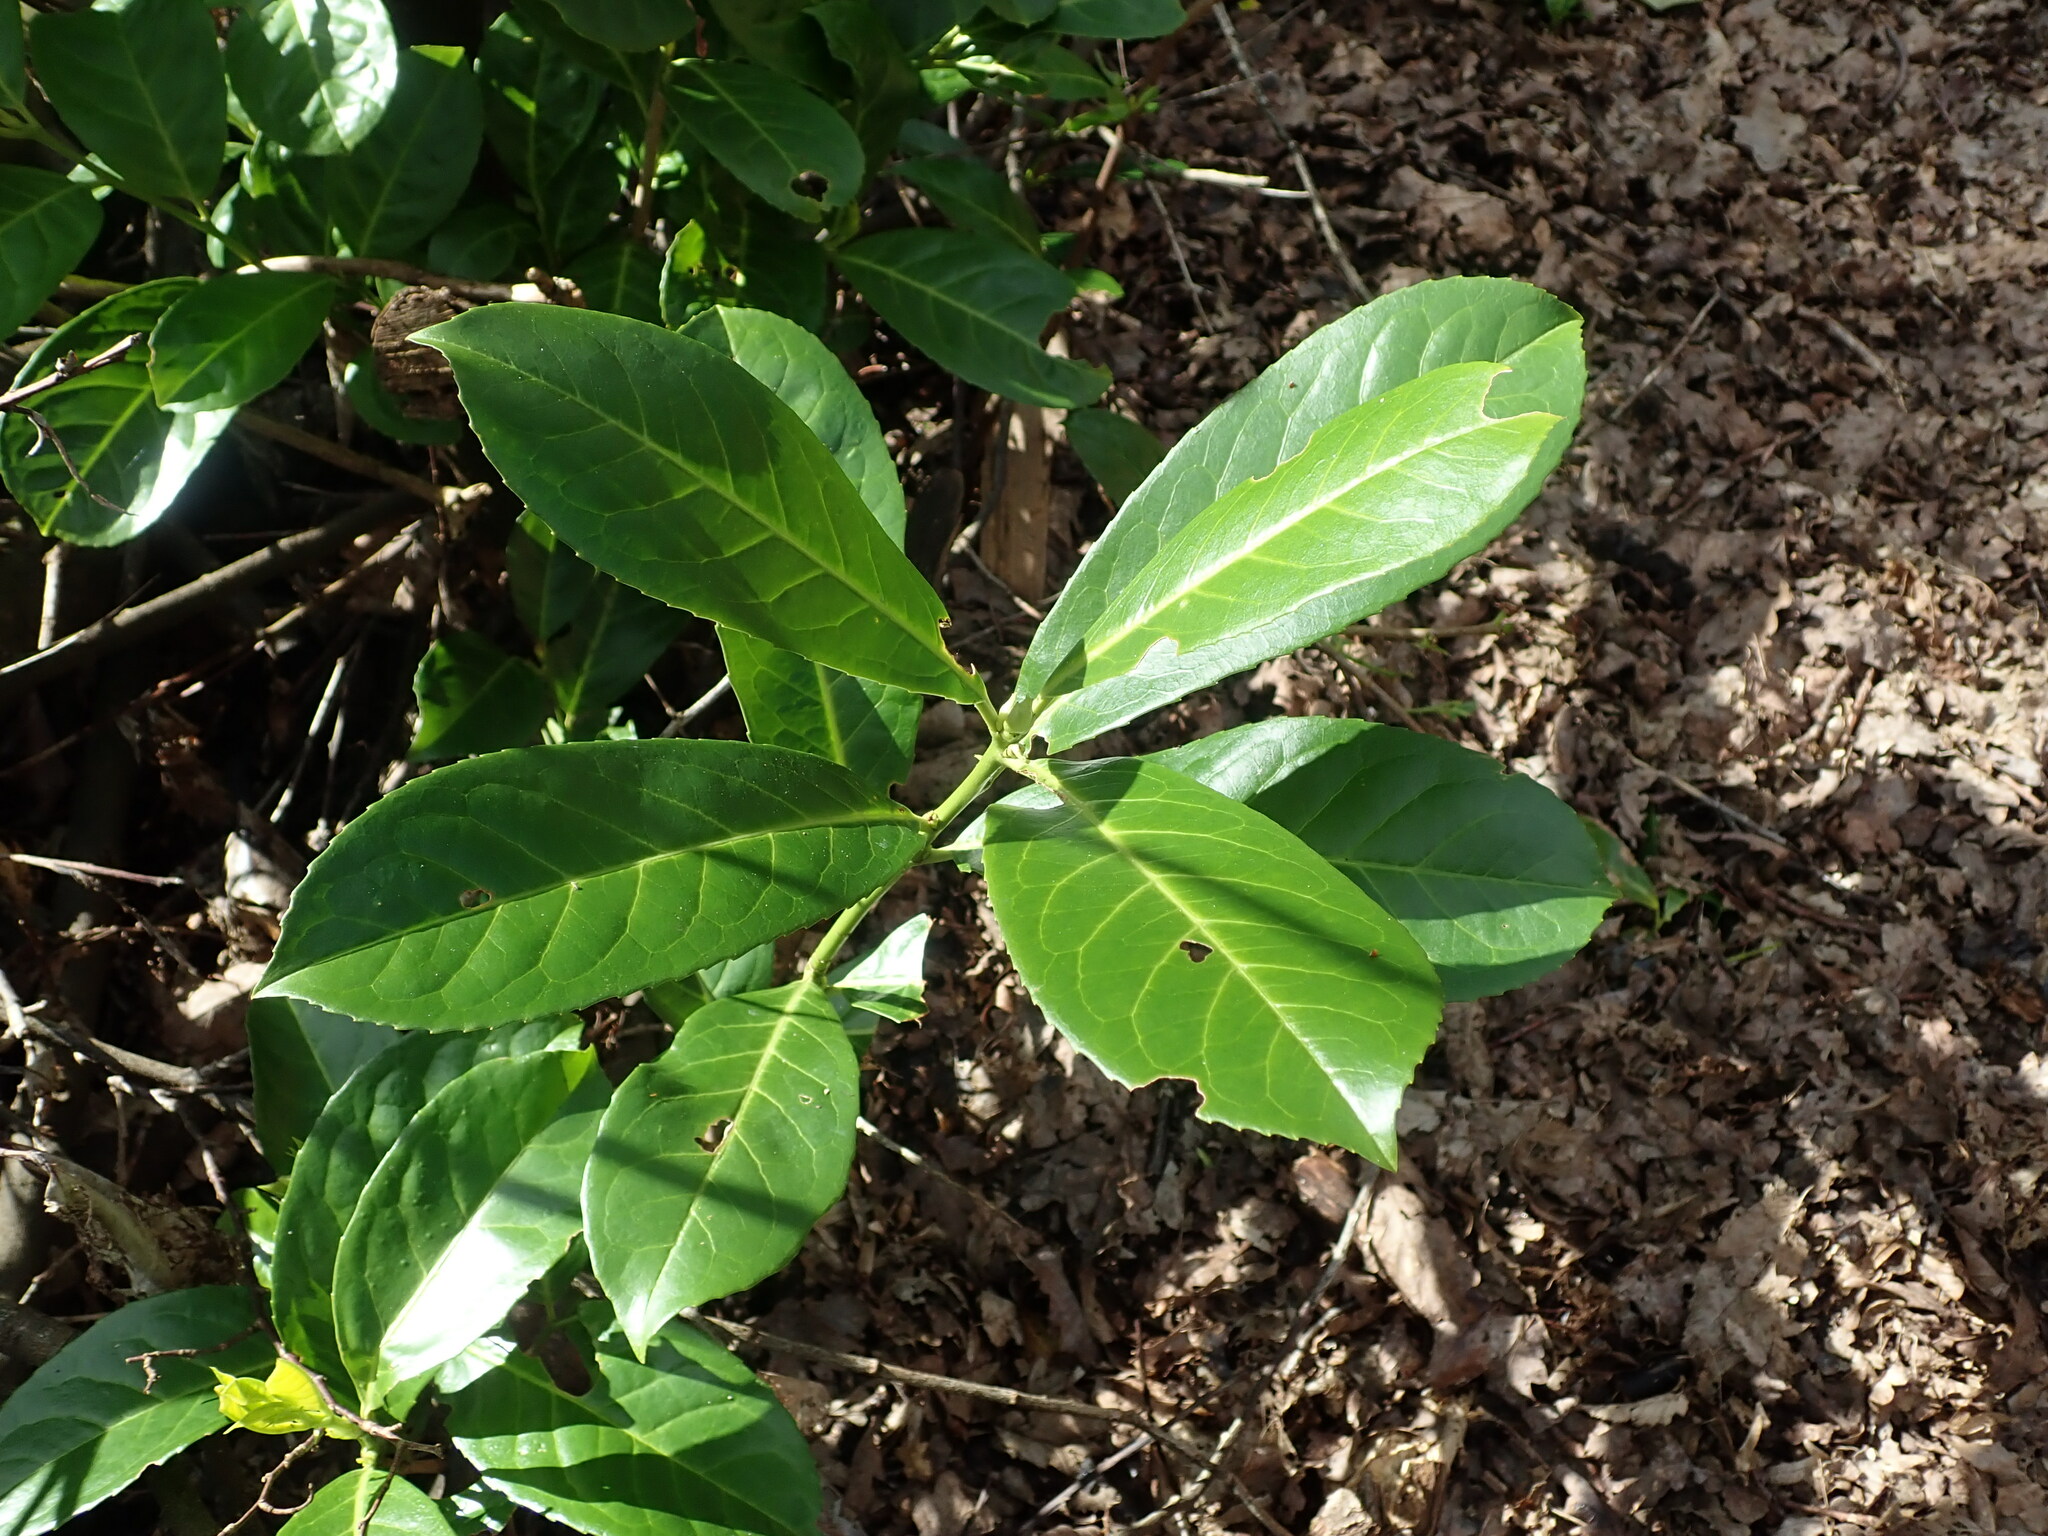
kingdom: Plantae
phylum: Tracheophyta
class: Magnoliopsida
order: Rosales
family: Rosaceae
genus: Prunus
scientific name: Prunus laurocerasus
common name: Cherry laurel
